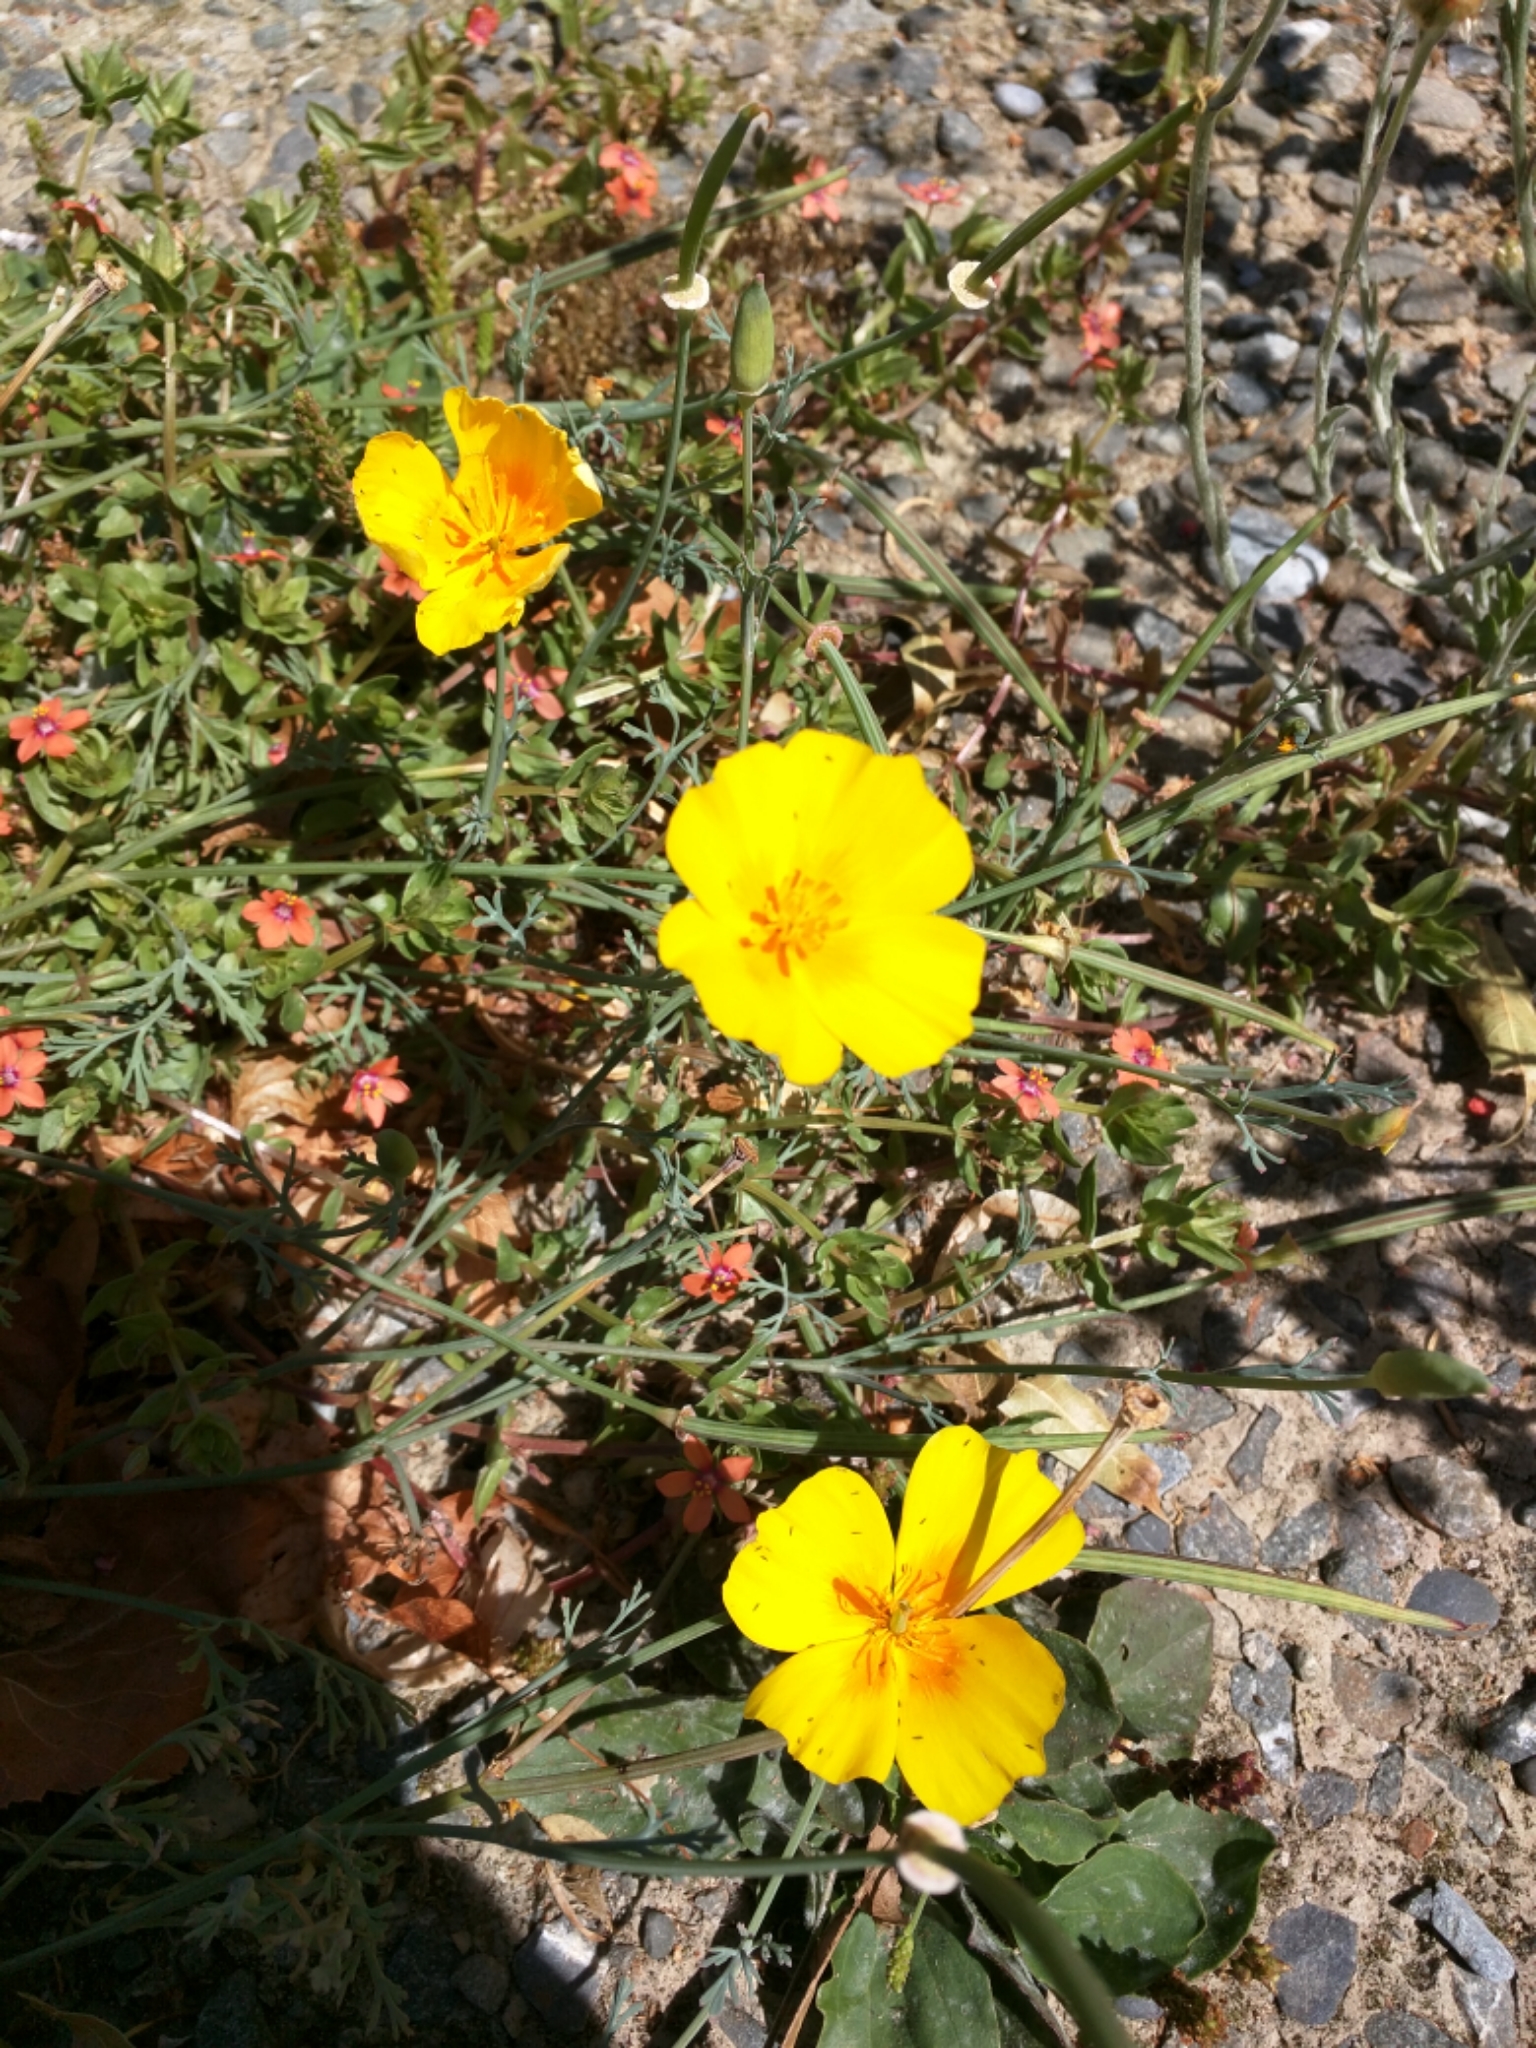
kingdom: Plantae
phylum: Tracheophyta
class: Magnoliopsida
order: Ranunculales
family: Papaveraceae
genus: Eschscholzia
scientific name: Eschscholzia californica
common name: California poppy
